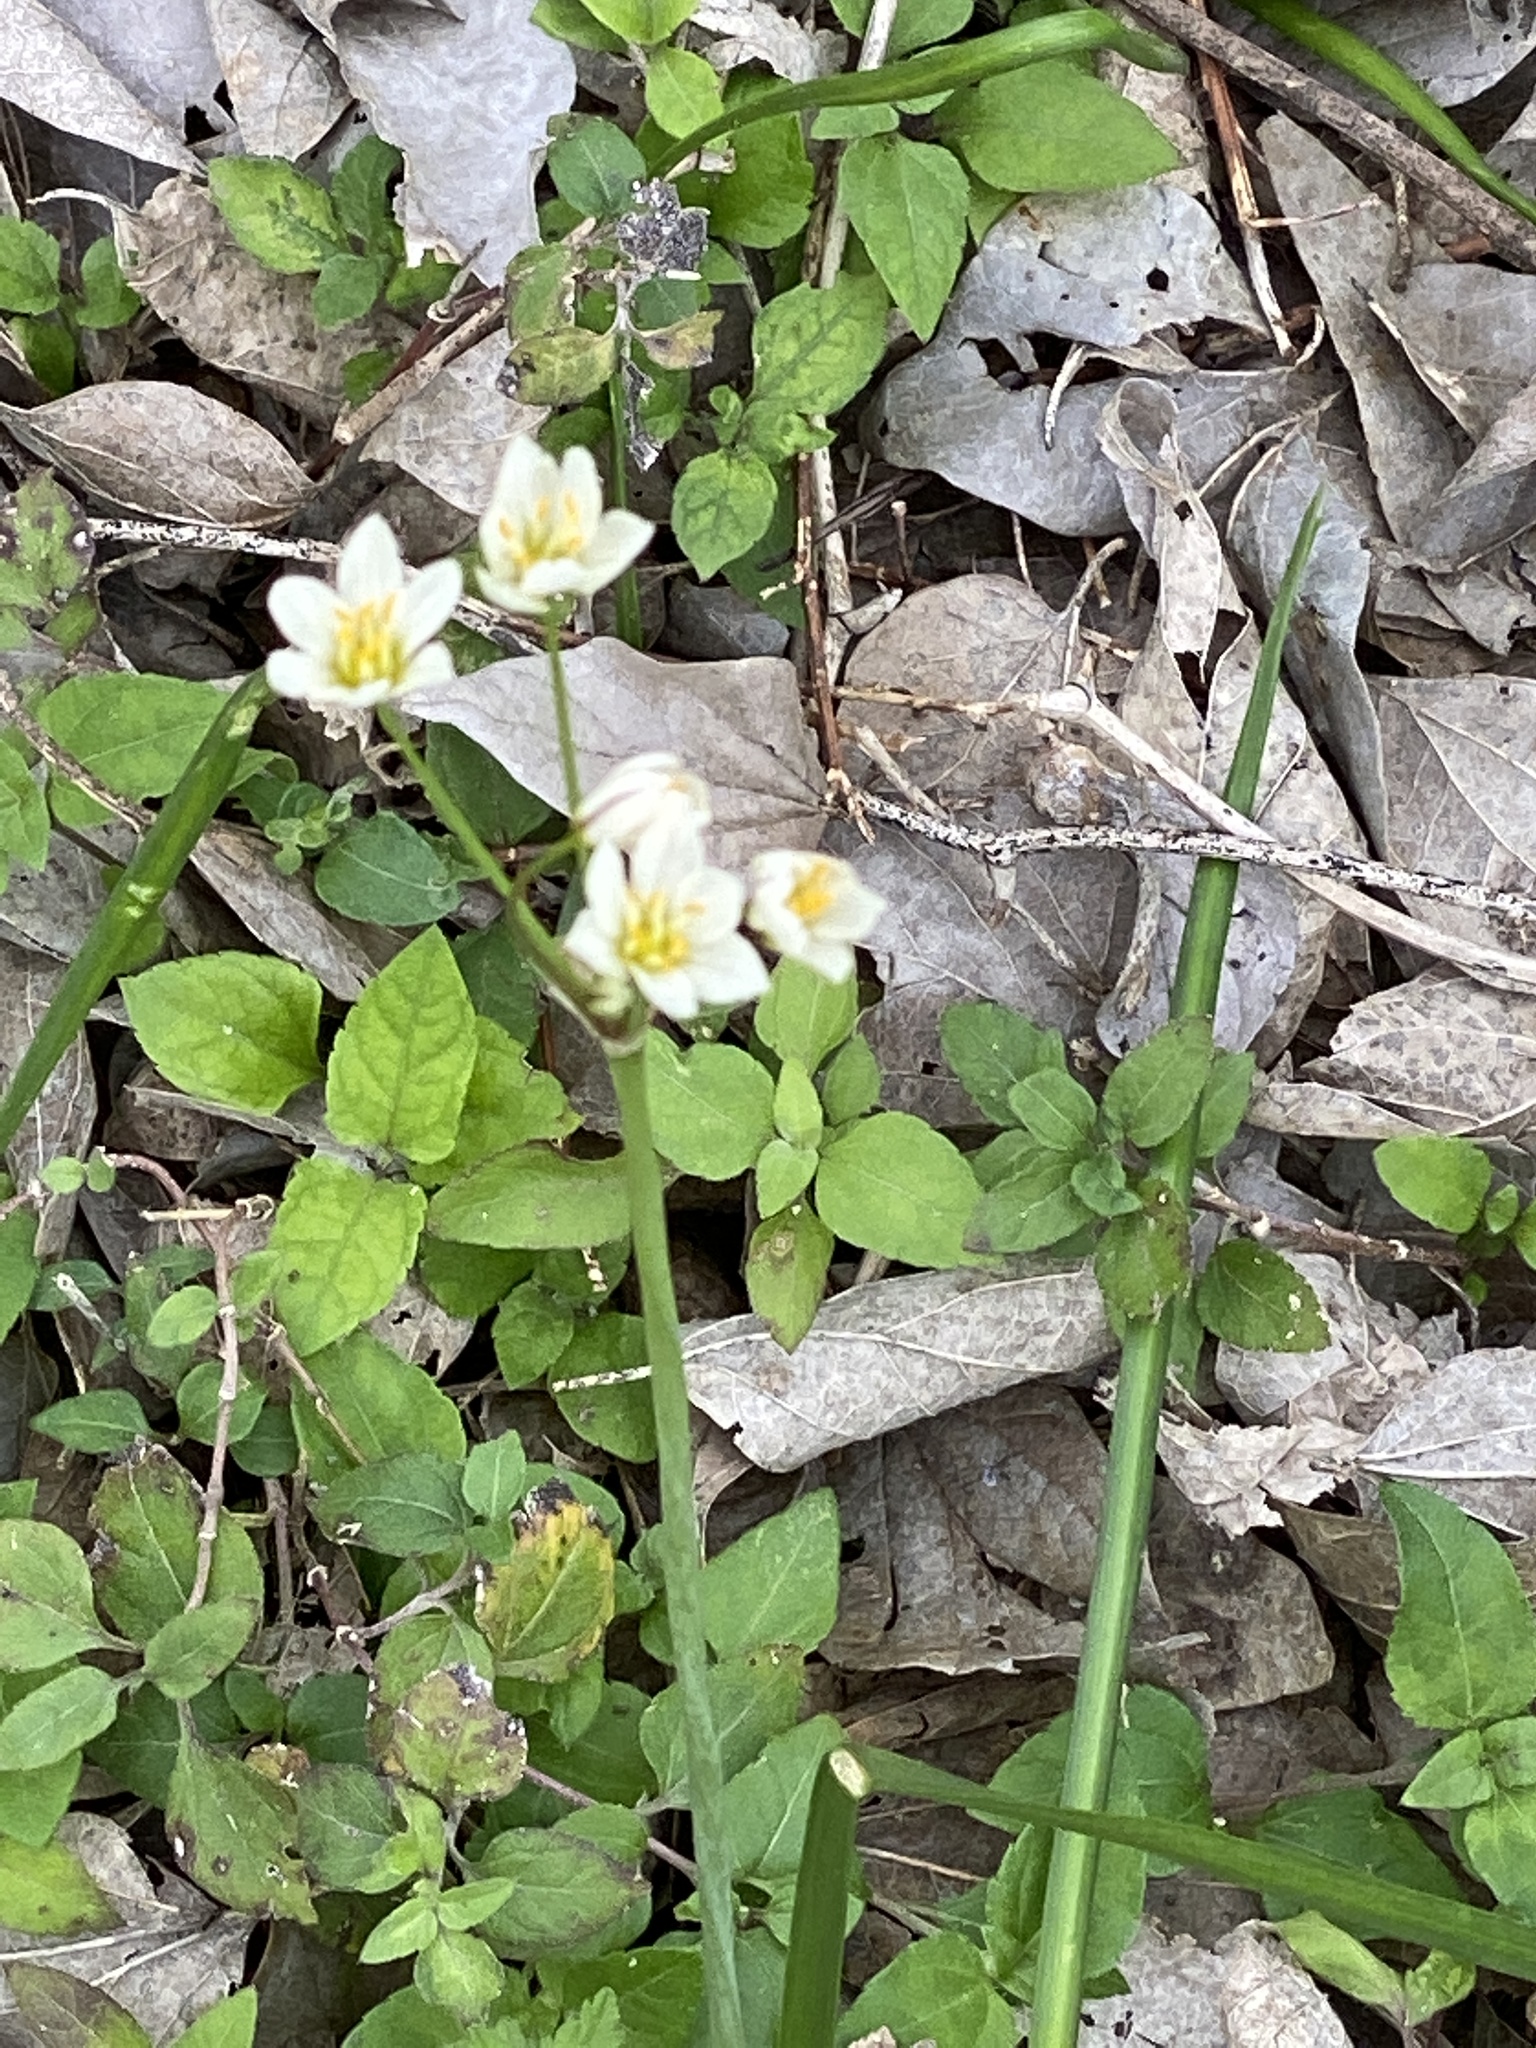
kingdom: Plantae
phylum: Tracheophyta
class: Liliopsida
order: Asparagales
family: Amaryllidaceae
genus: Nothoscordum
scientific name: Nothoscordum bivalve
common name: Crow-poison
